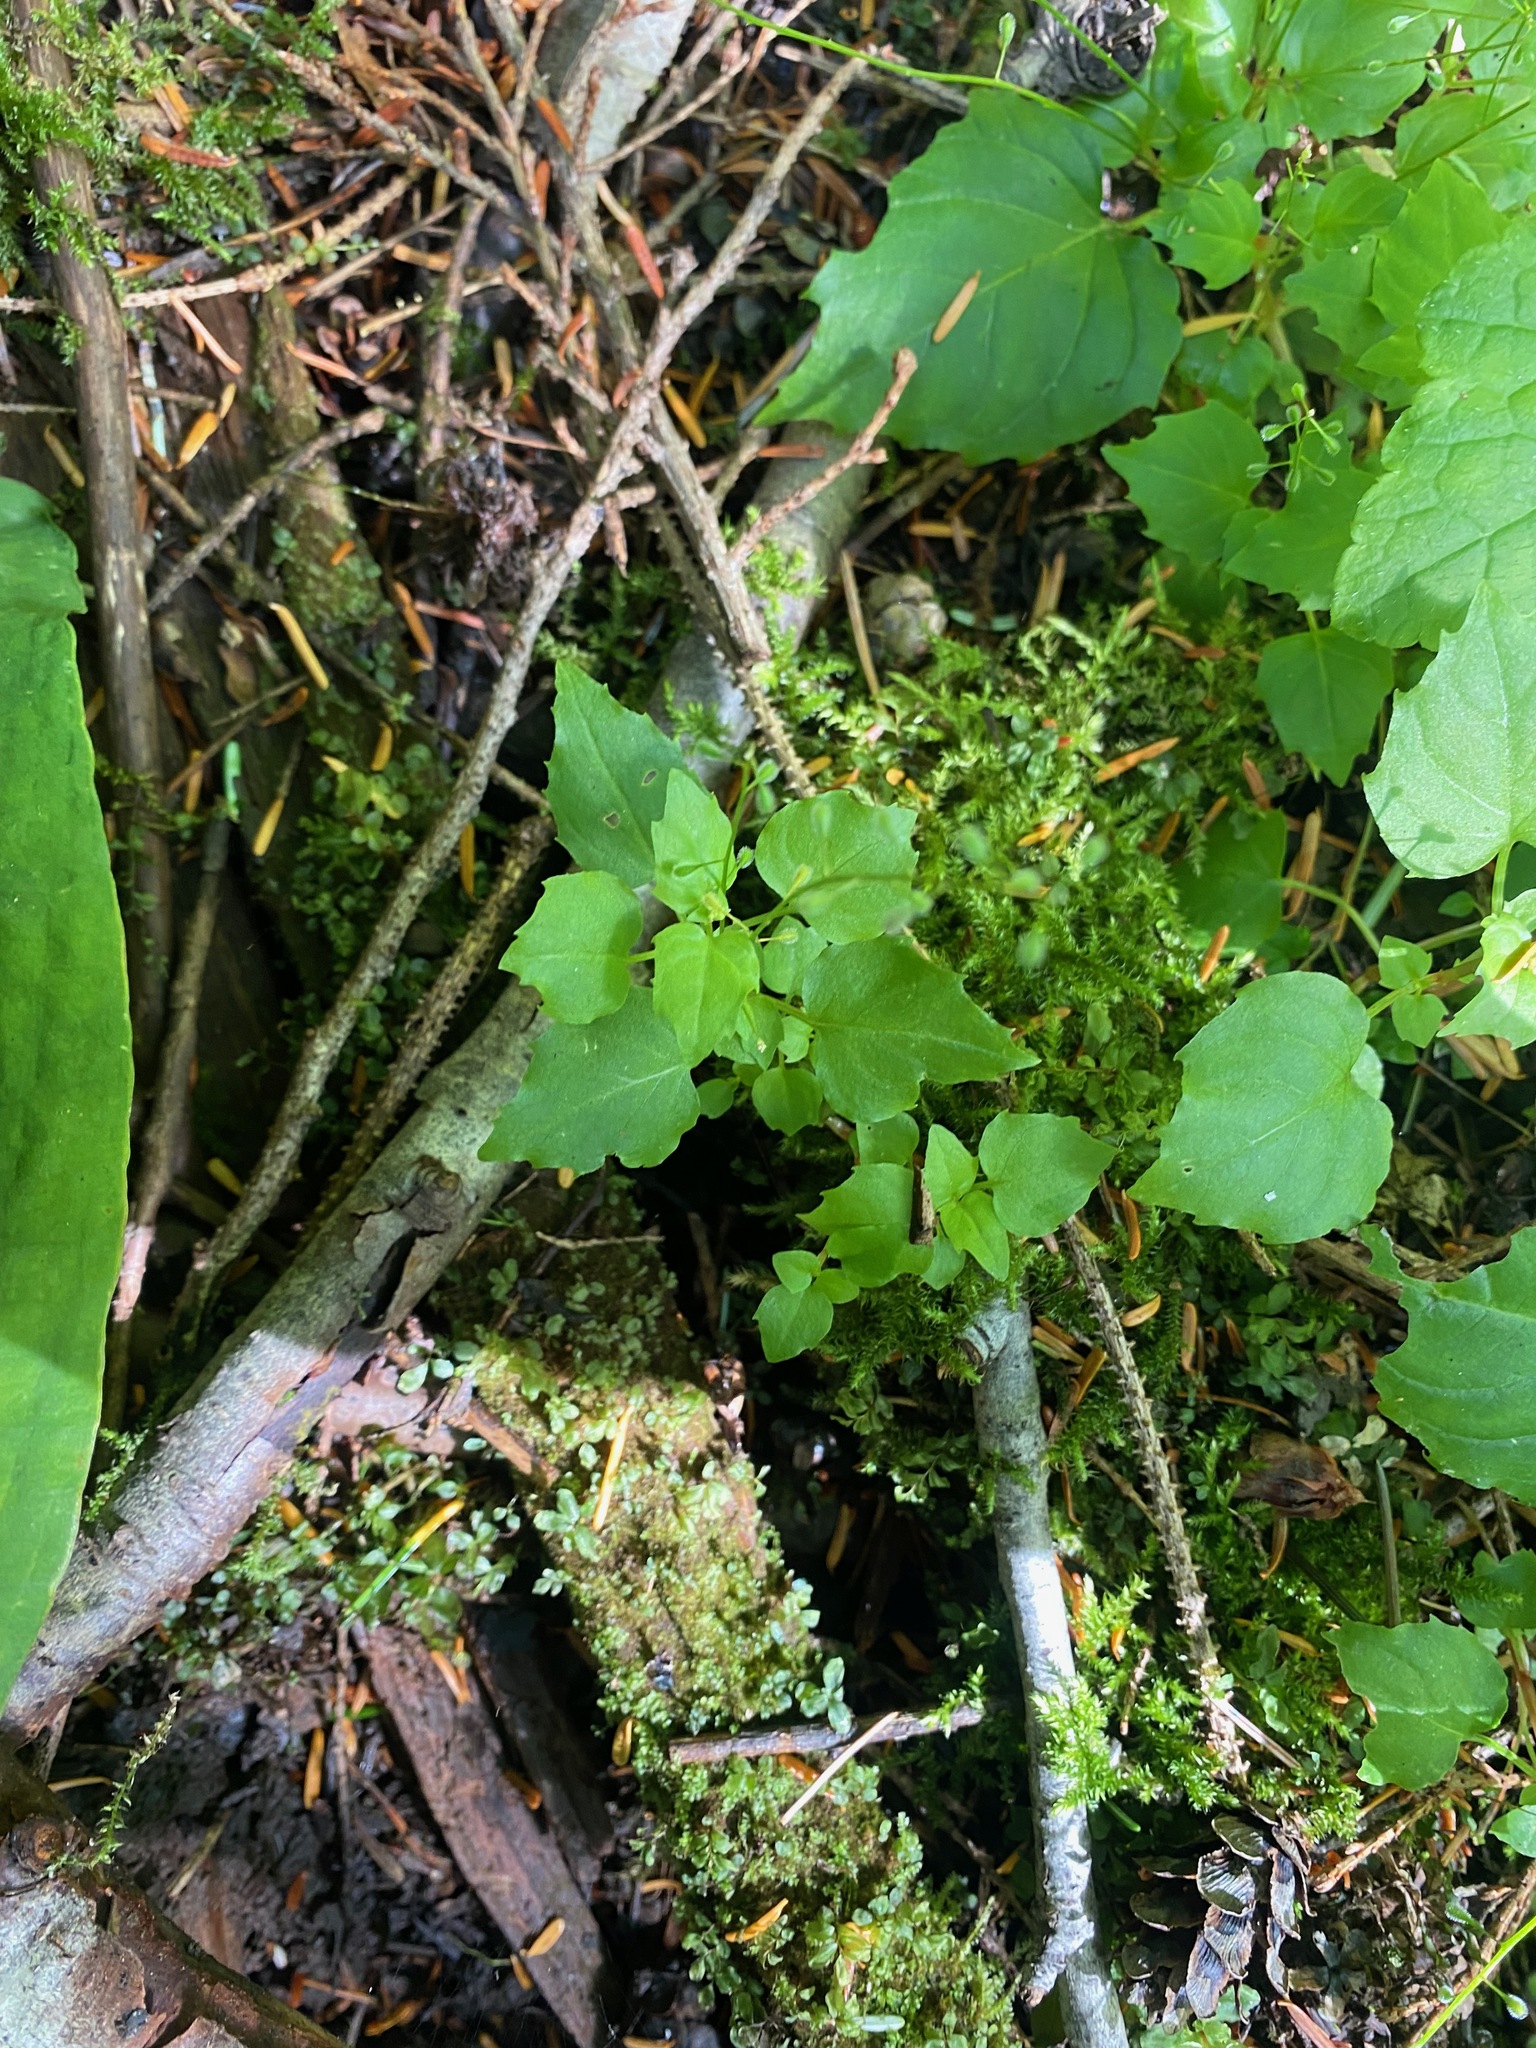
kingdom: Plantae
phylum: Tracheophyta
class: Magnoliopsida
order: Myrtales
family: Onagraceae
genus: Circaea
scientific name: Circaea alpina
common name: Alpine enchanter's-nightshade
